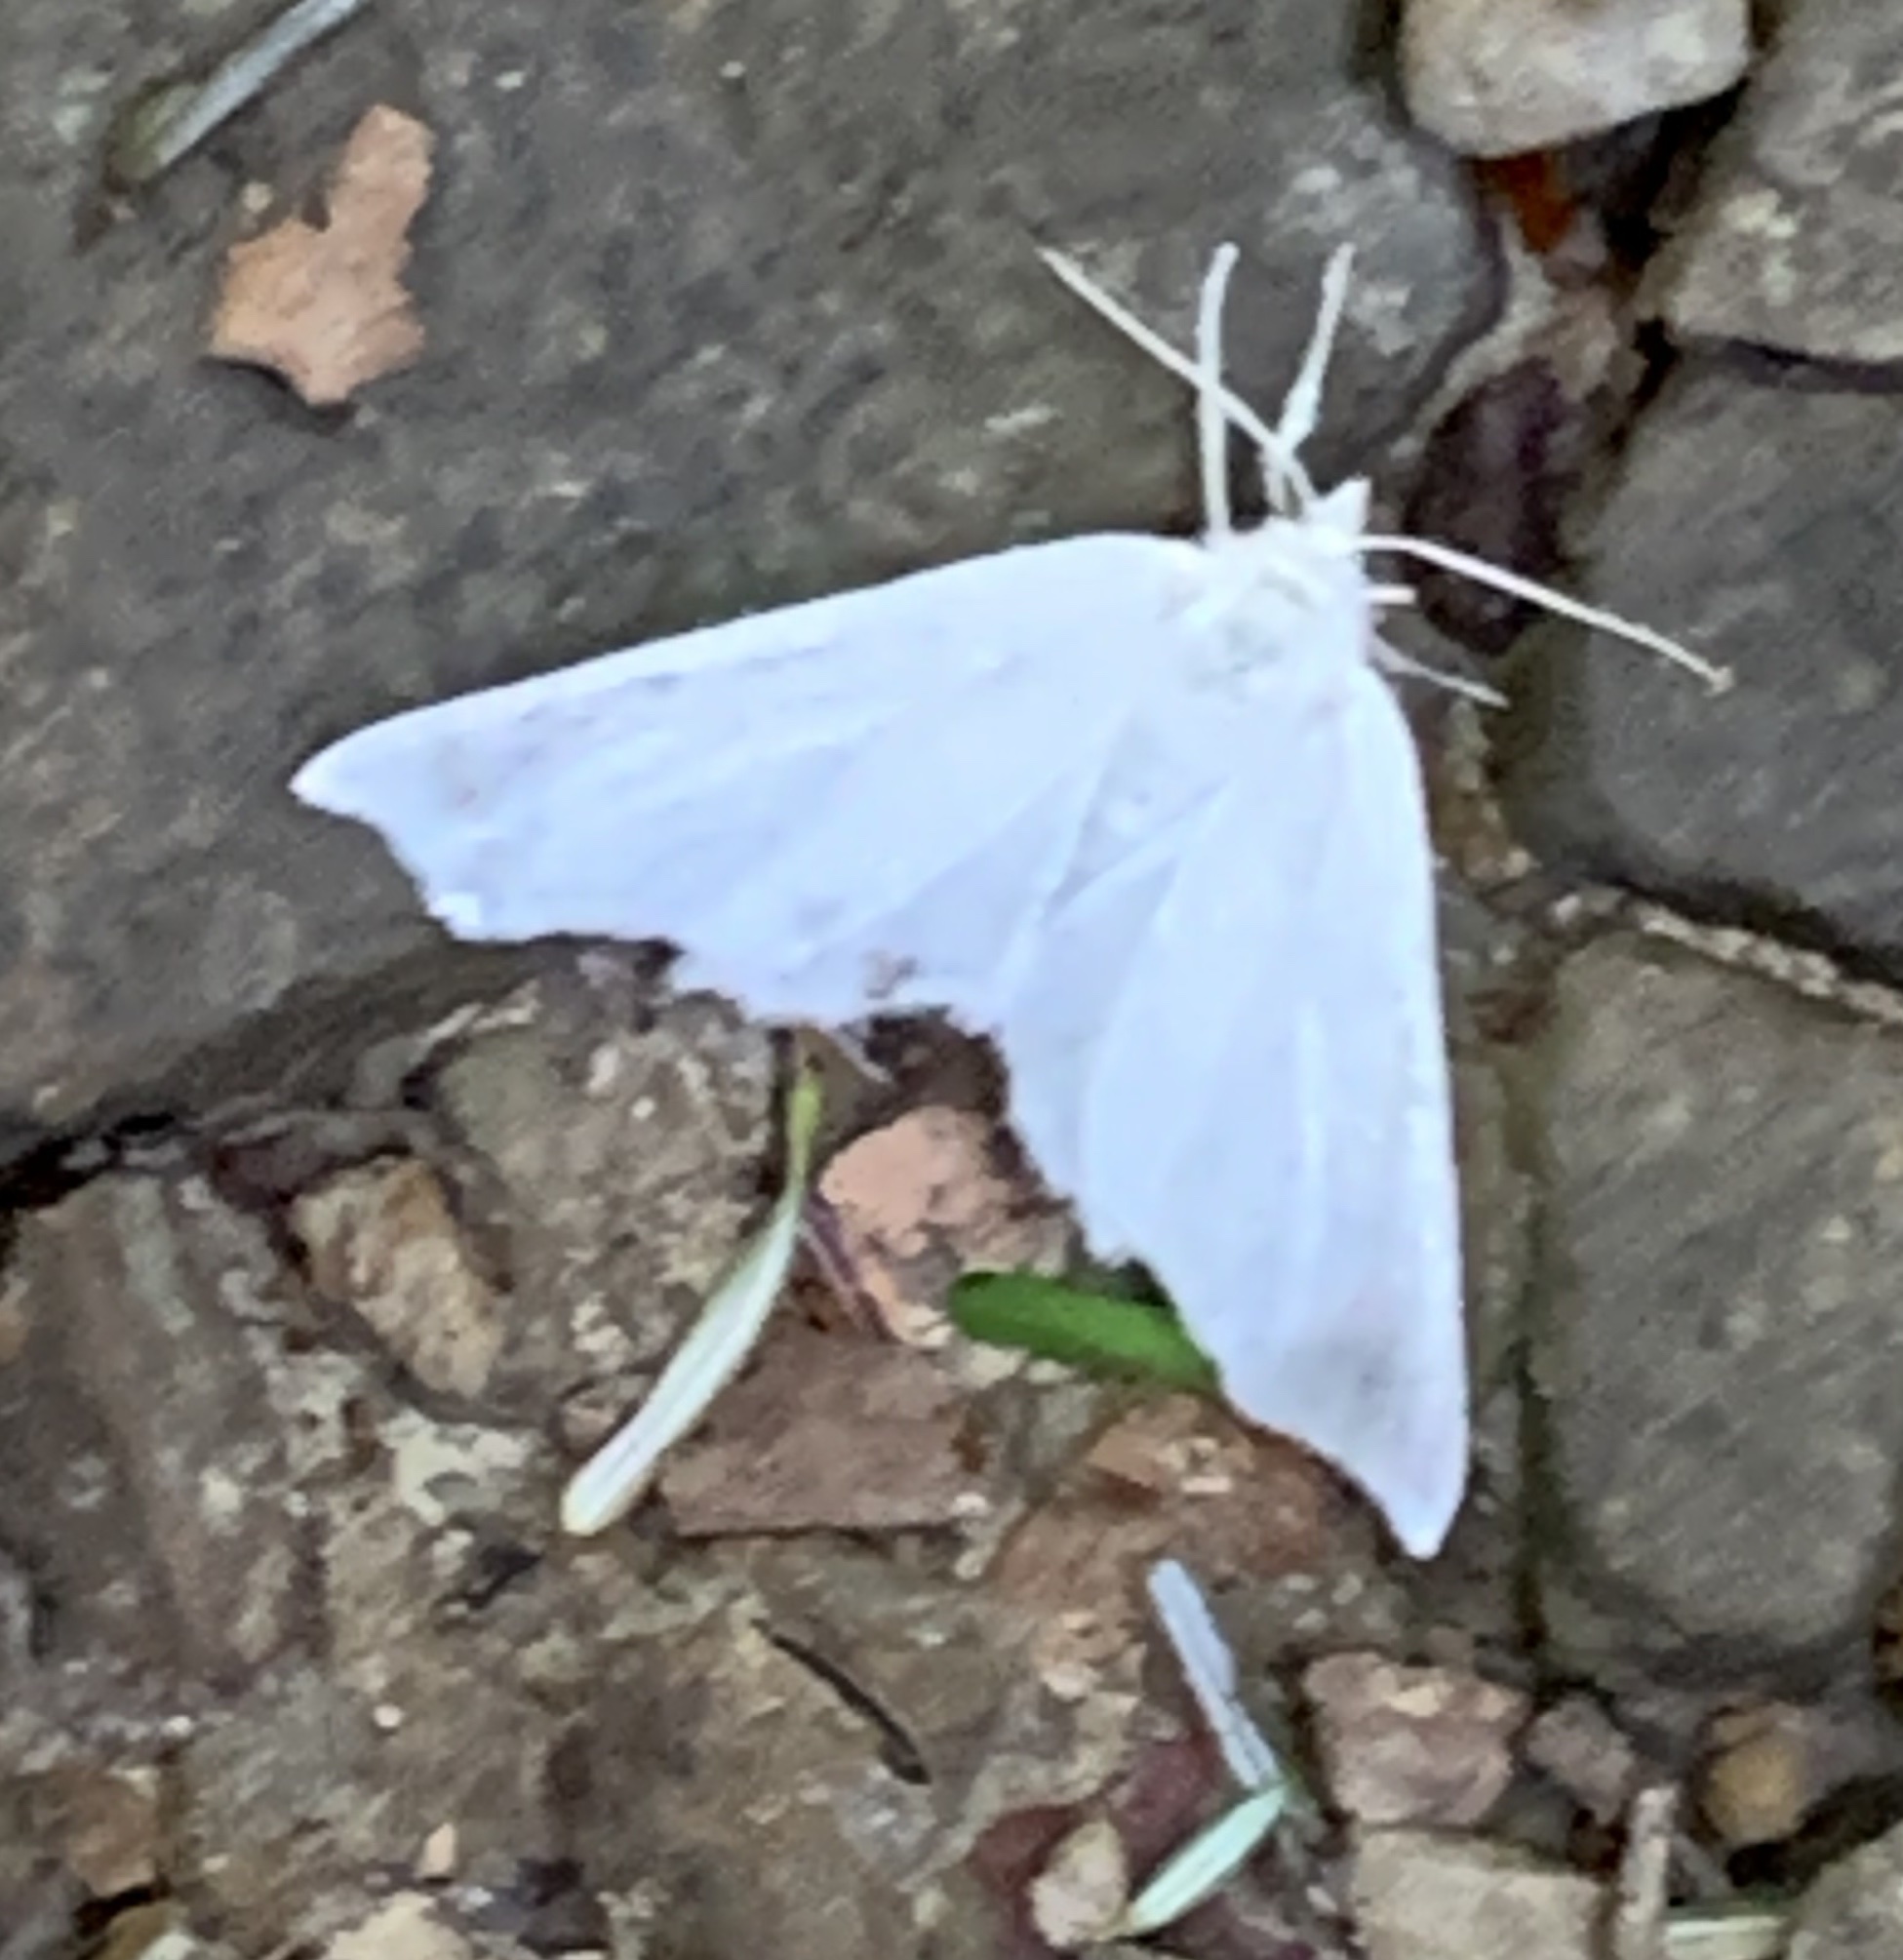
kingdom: Animalia
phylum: Arthropoda
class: Insecta
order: Lepidoptera
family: Geometridae
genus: Ennomos
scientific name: Ennomos subsignaria
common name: Elm spanworm
